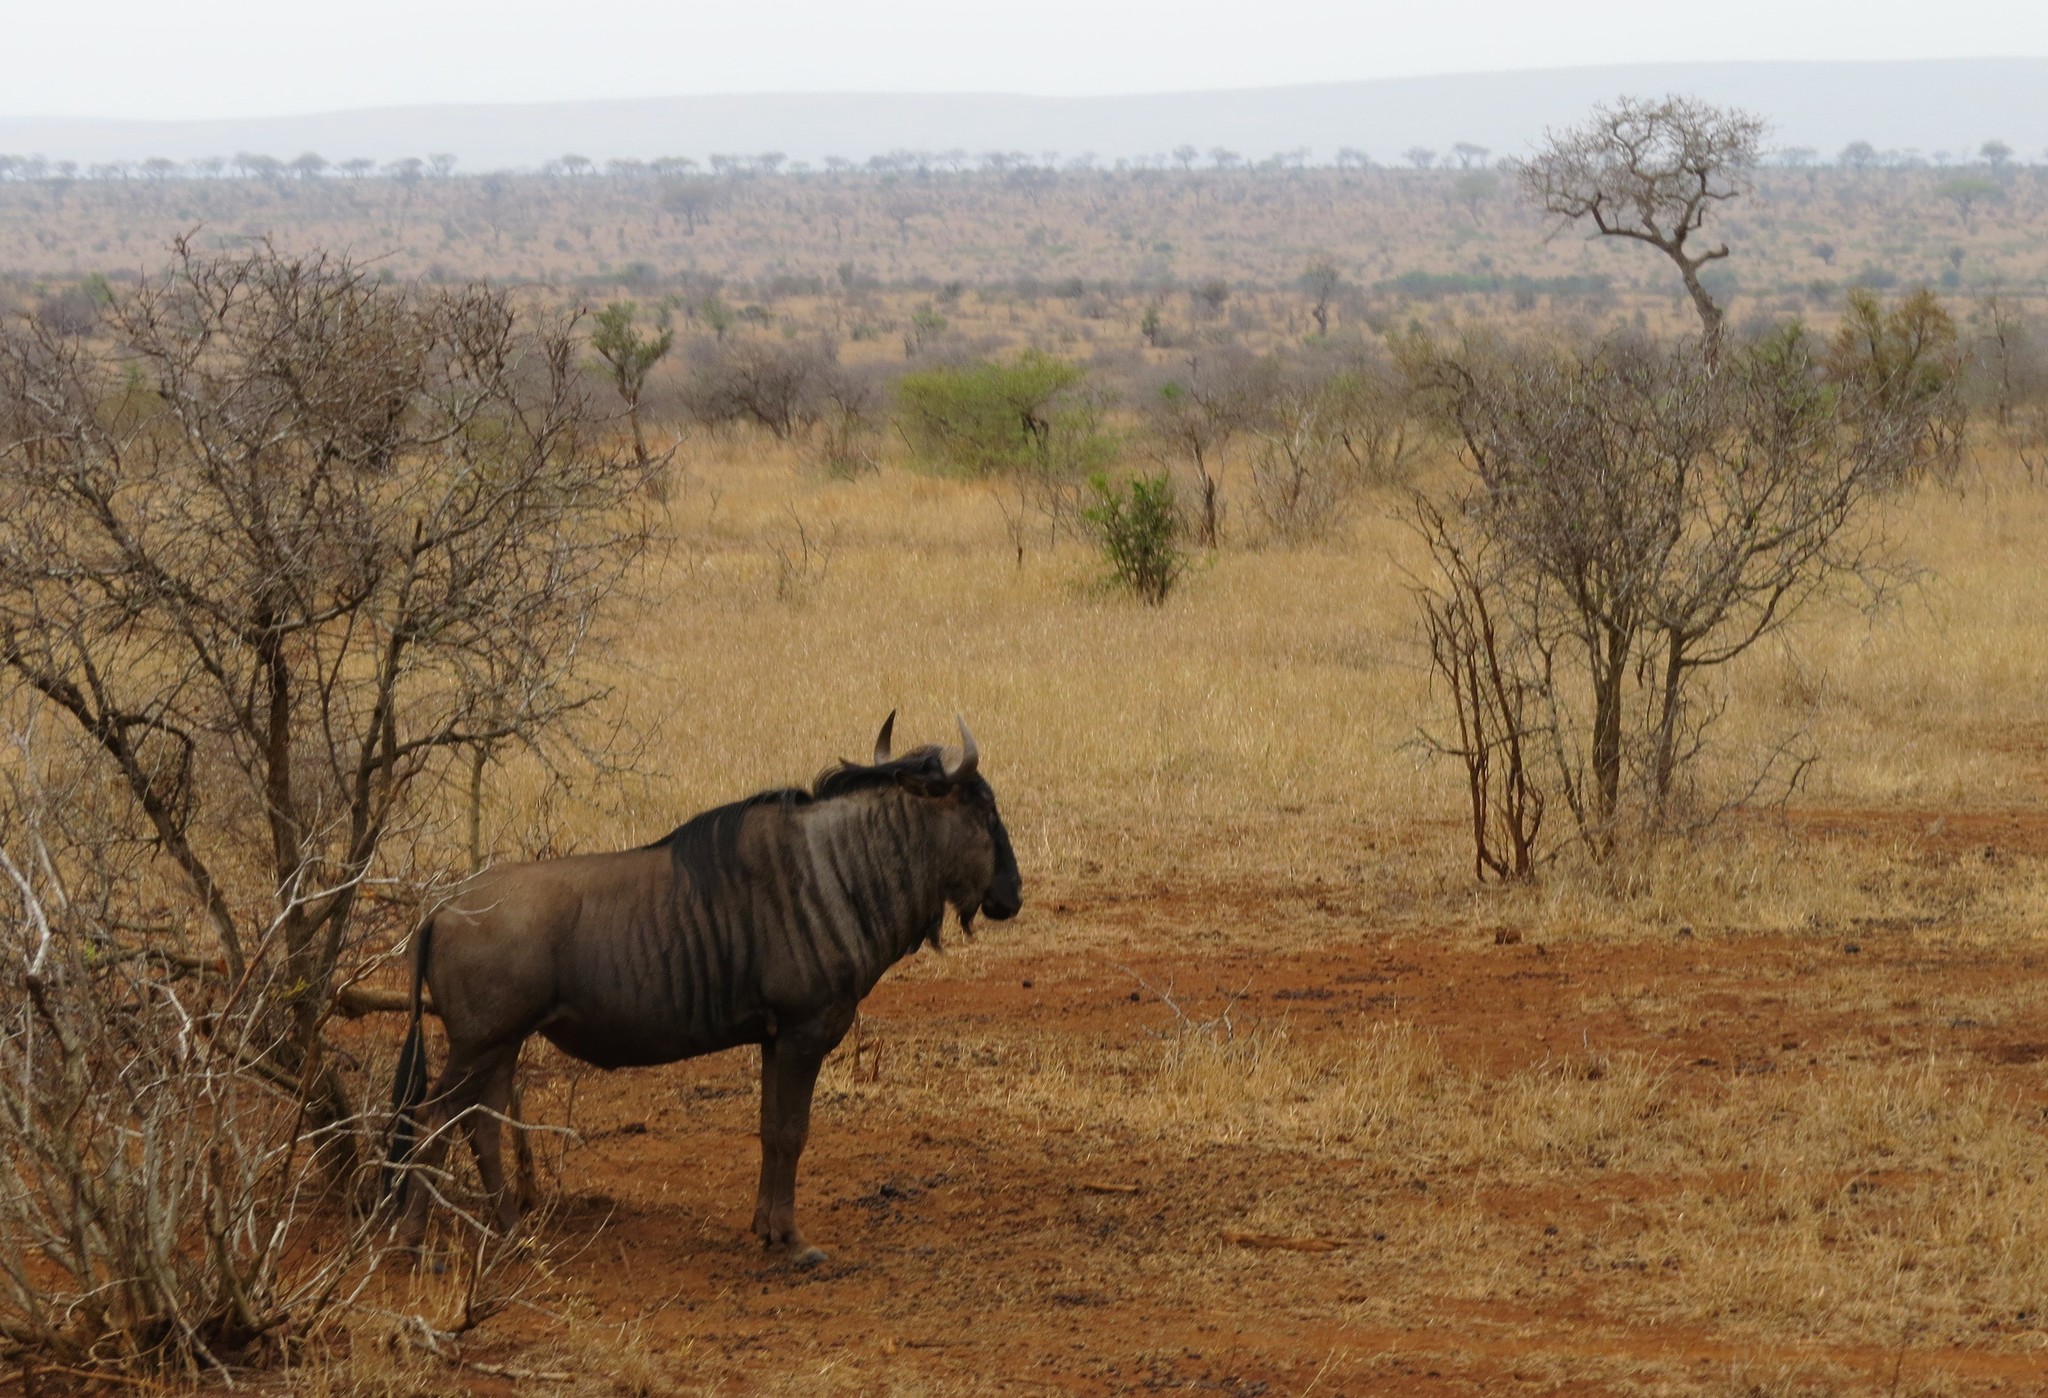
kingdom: Animalia
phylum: Chordata
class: Mammalia
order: Artiodactyla
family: Bovidae
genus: Connochaetes
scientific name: Connochaetes taurinus
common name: Blue wildebeest
